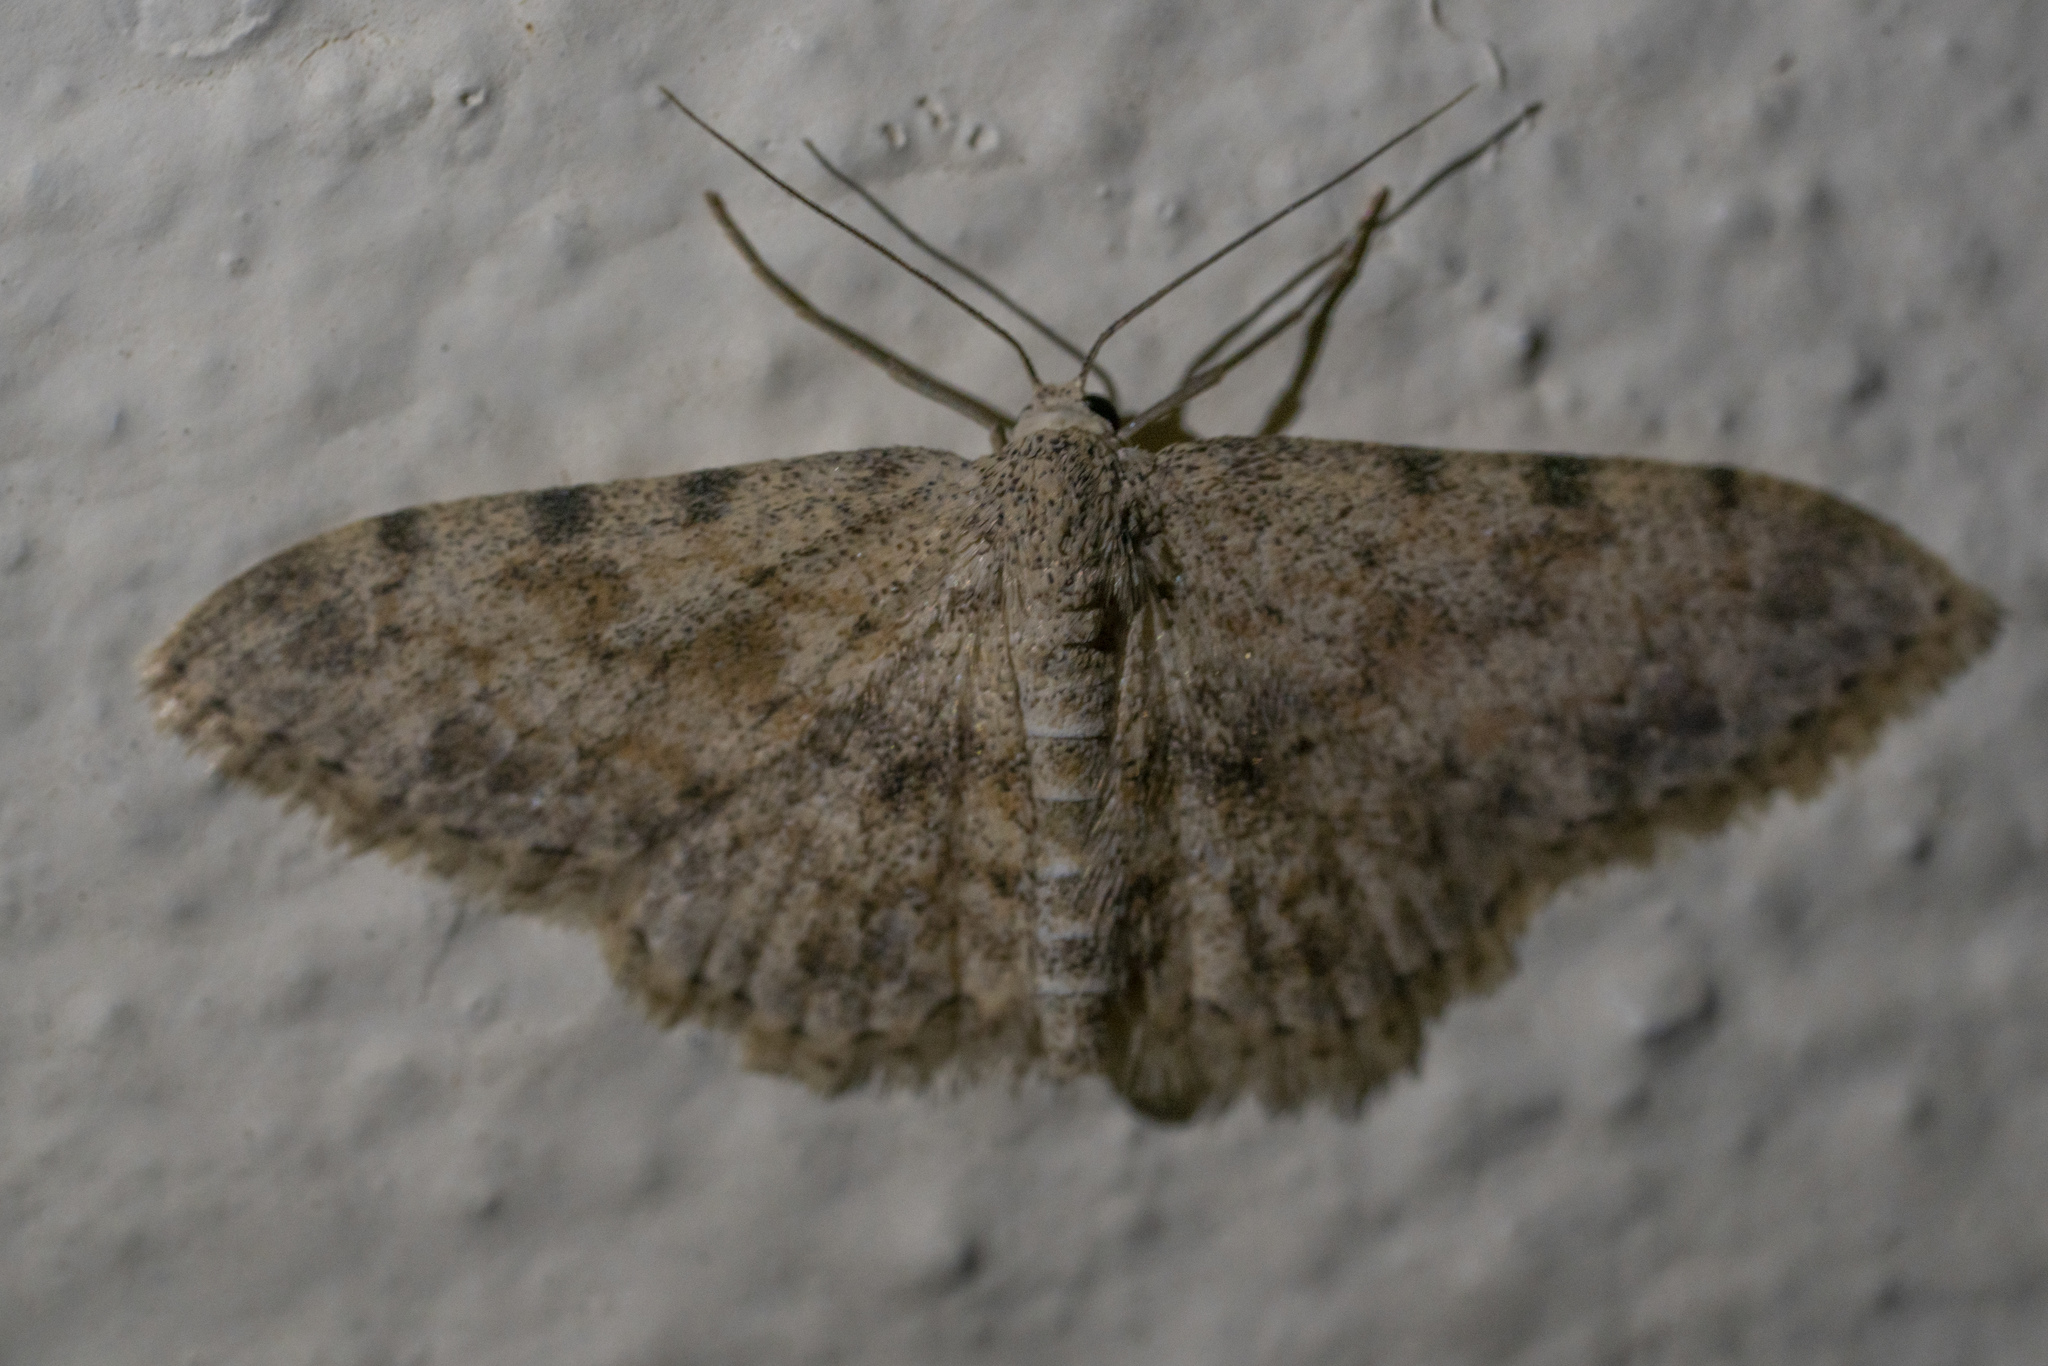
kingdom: Animalia
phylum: Arthropoda
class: Insecta
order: Lepidoptera
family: Geometridae
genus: Scopula
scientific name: Scopula luridata
